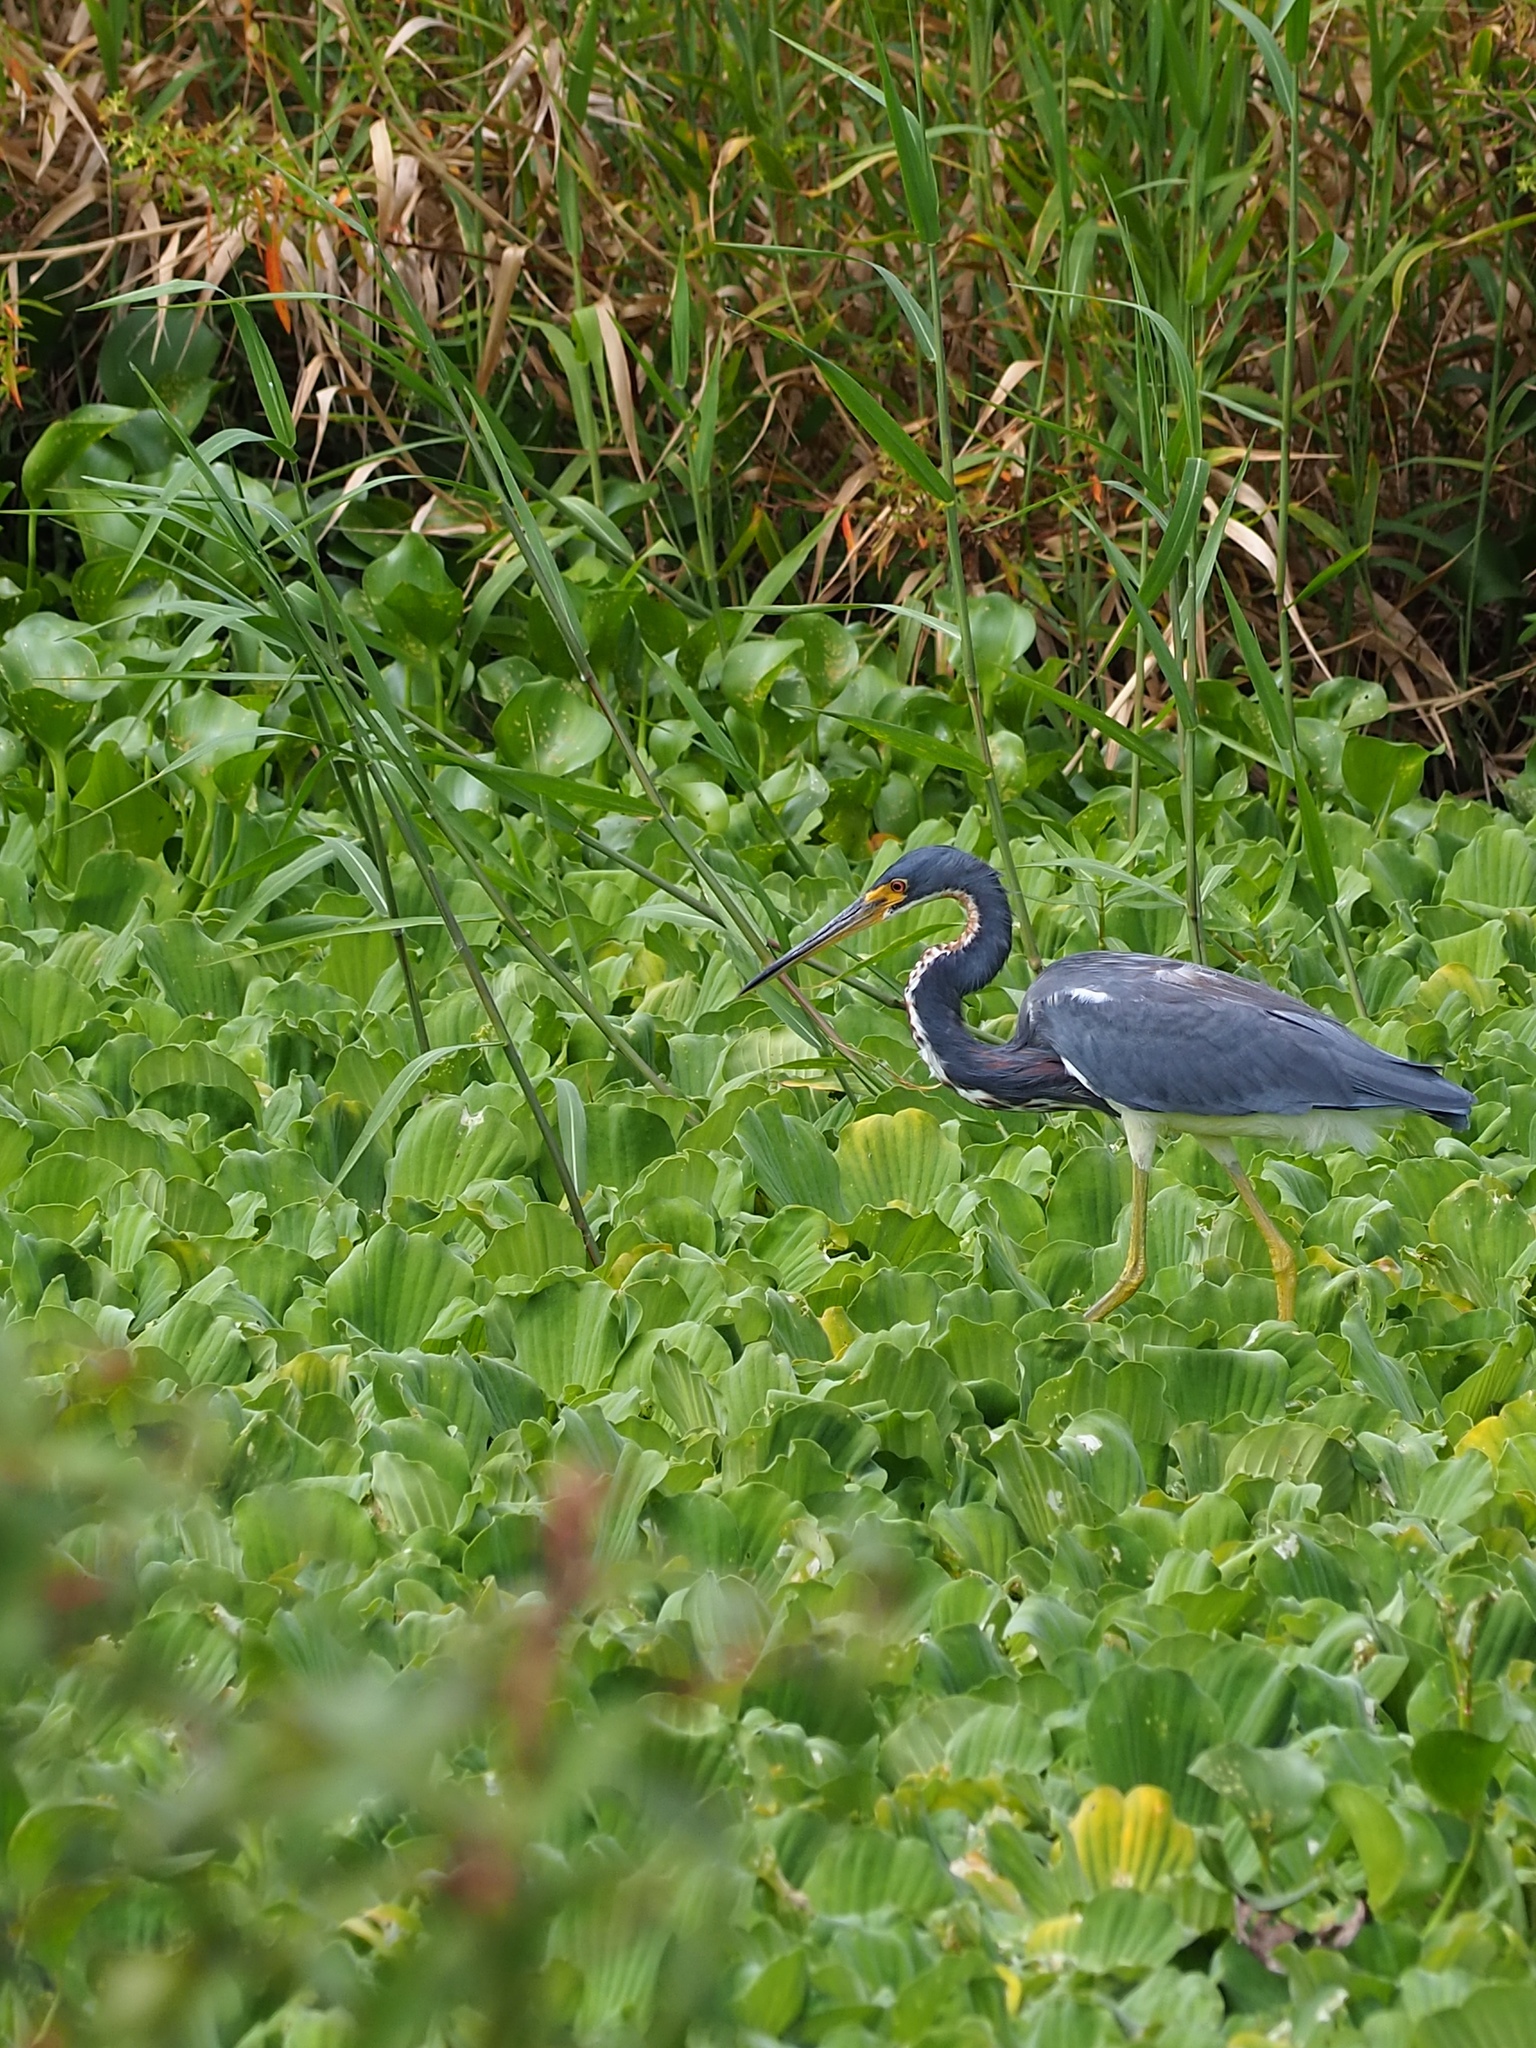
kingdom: Animalia
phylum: Chordata
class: Aves
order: Pelecaniformes
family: Ardeidae
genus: Egretta
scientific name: Egretta tricolor
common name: Tricolored heron
